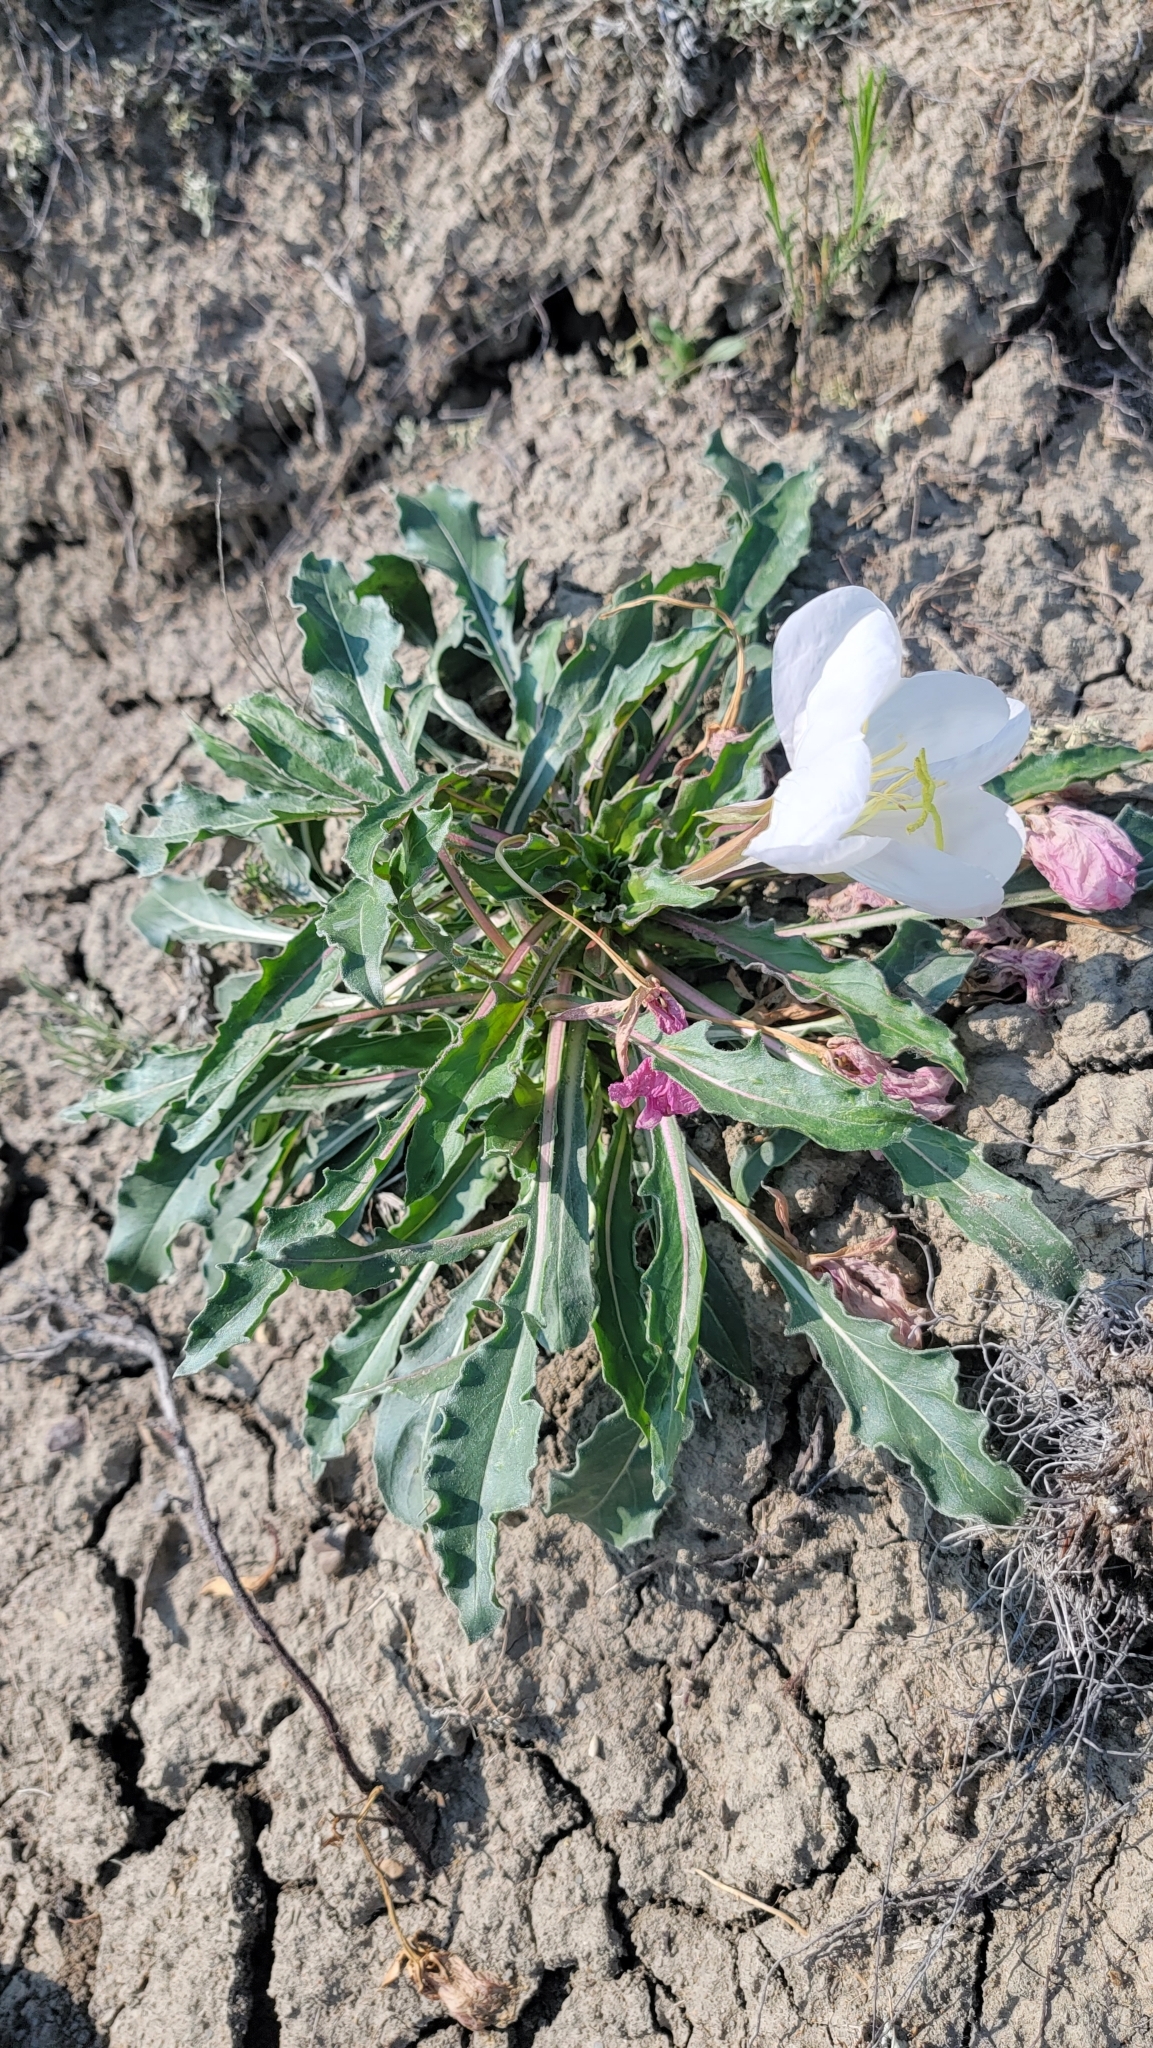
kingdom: Plantae
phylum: Tracheophyta
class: Magnoliopsida
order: Myrtales
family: Onagraceae
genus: Oenothera
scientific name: Oenothera cespitosa
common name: Tufted evening-primrose
